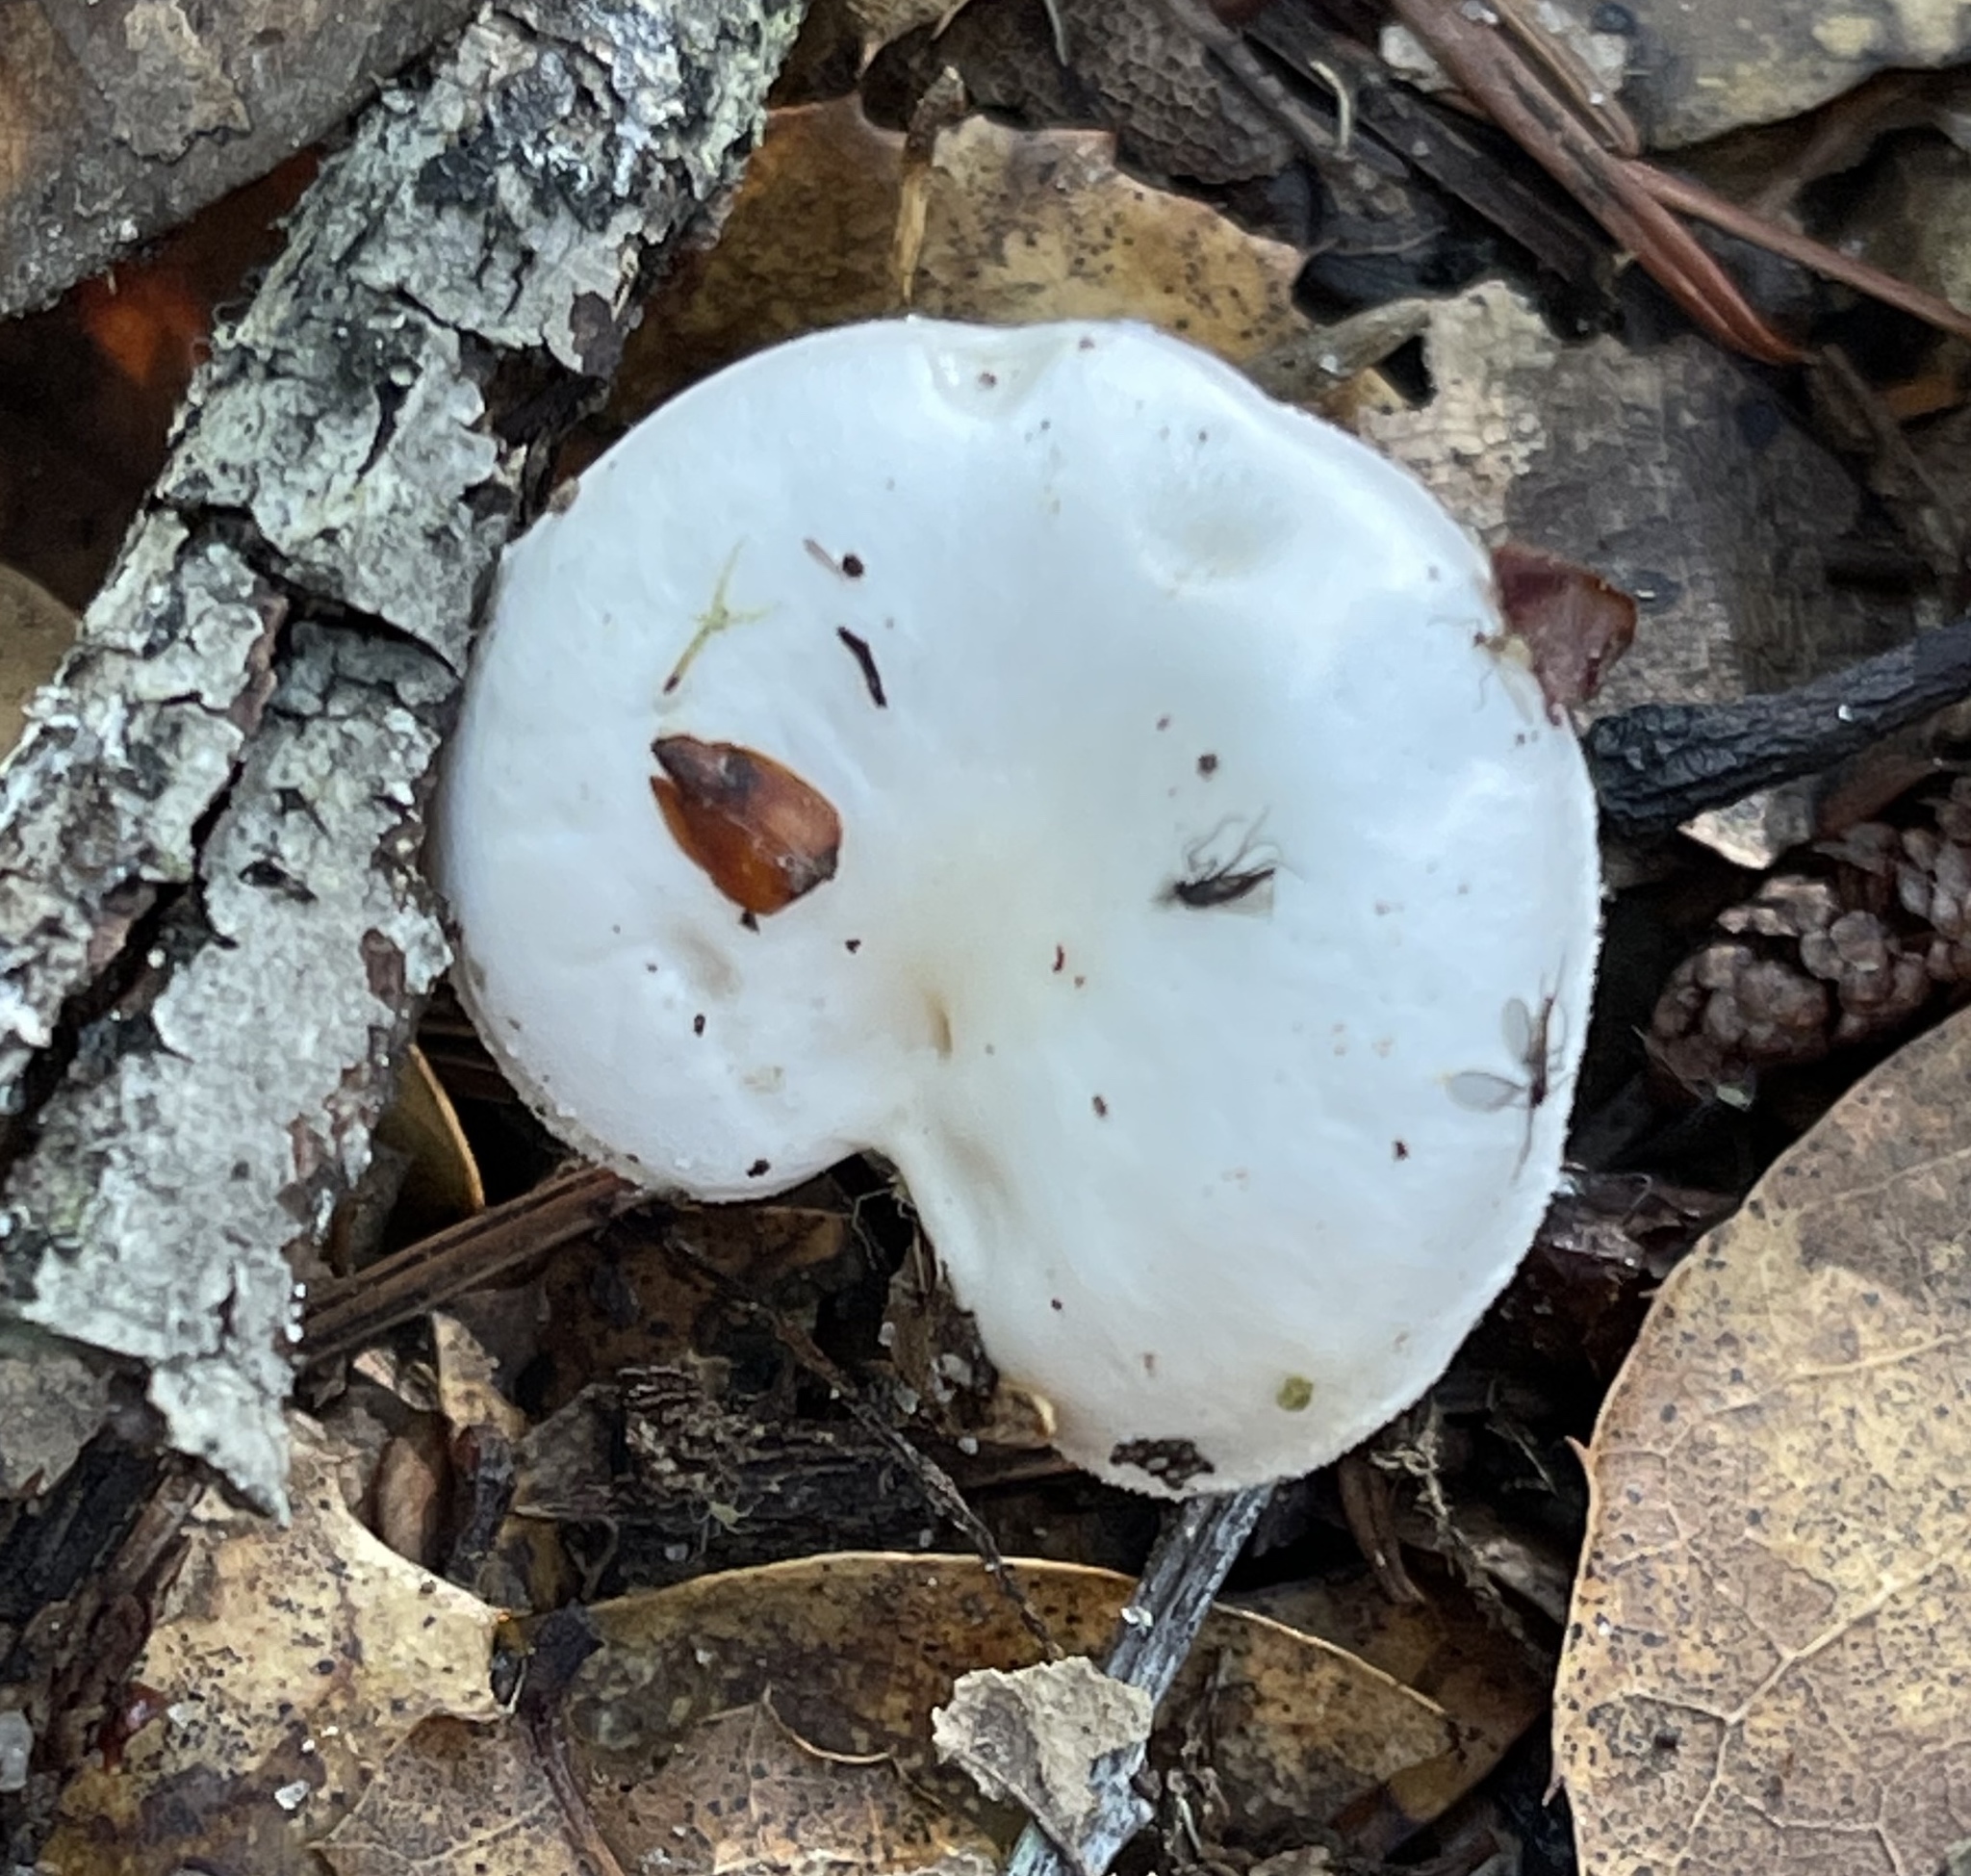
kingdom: Fungi
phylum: Basidiomycota
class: Agaricomycetes
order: Agaricales
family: Hygrophoraceae
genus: Hygrophorus
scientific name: Hygrophorus eburneus
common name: Ivory wax-cap
